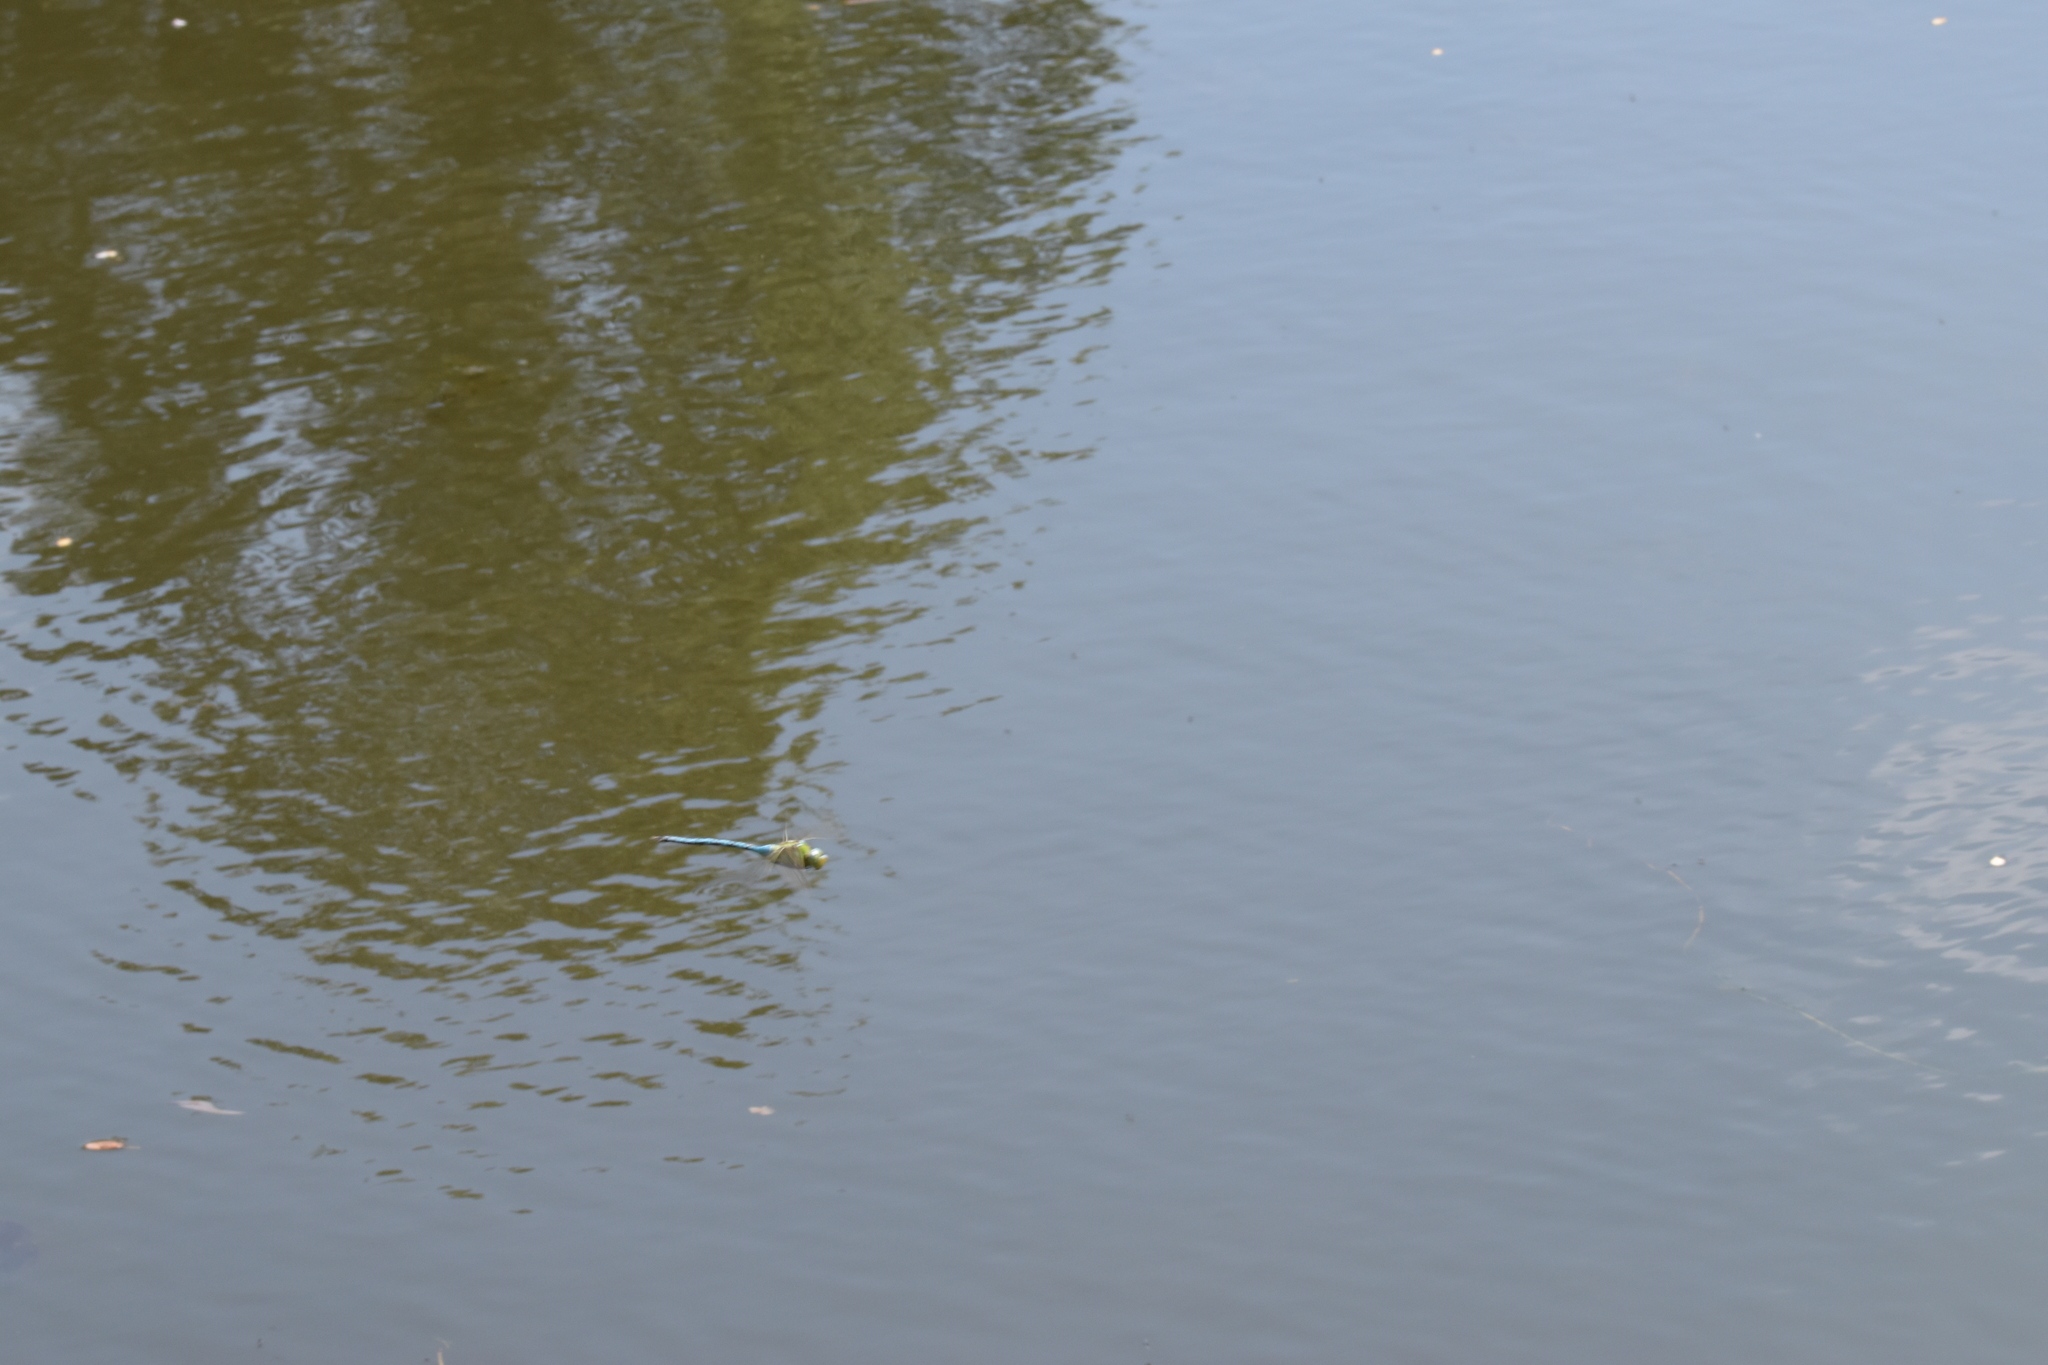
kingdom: Animalia
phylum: Arthropoda
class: Insecta
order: Odonata
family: Aeshnidae
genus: Anax
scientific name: Anax imperator
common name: Emperor dragonfly
